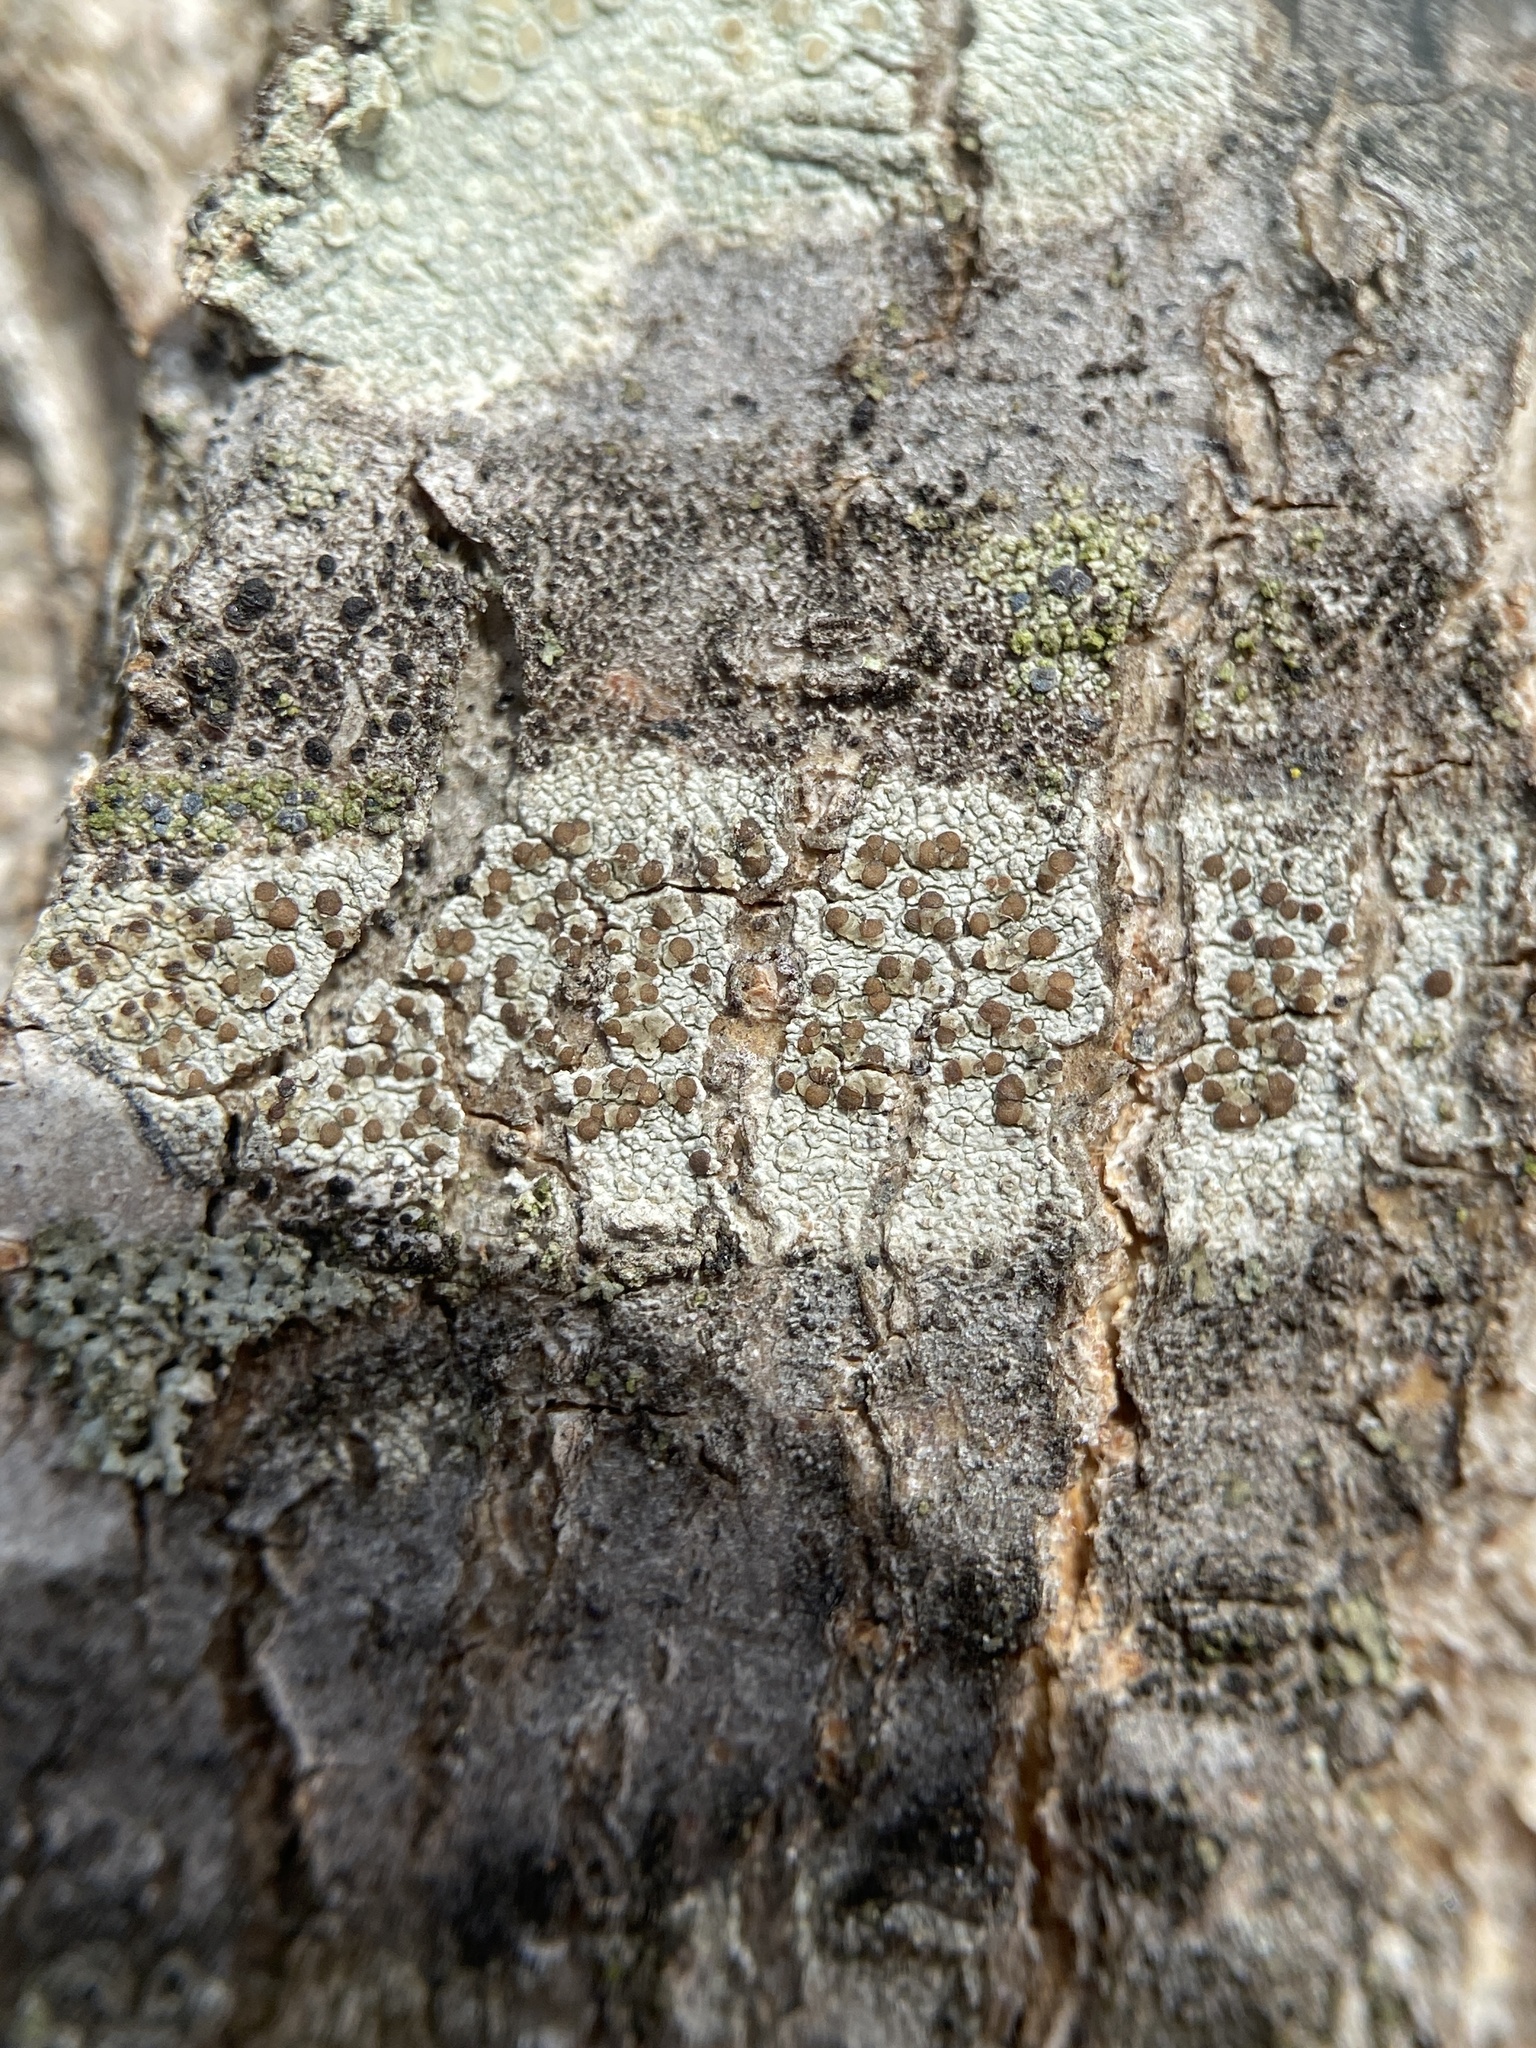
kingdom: Fungi
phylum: Ascomycota
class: Lecanoromycetes
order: Lecanorales
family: Lecanoraceae
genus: Traponora
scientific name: Traponora varians
